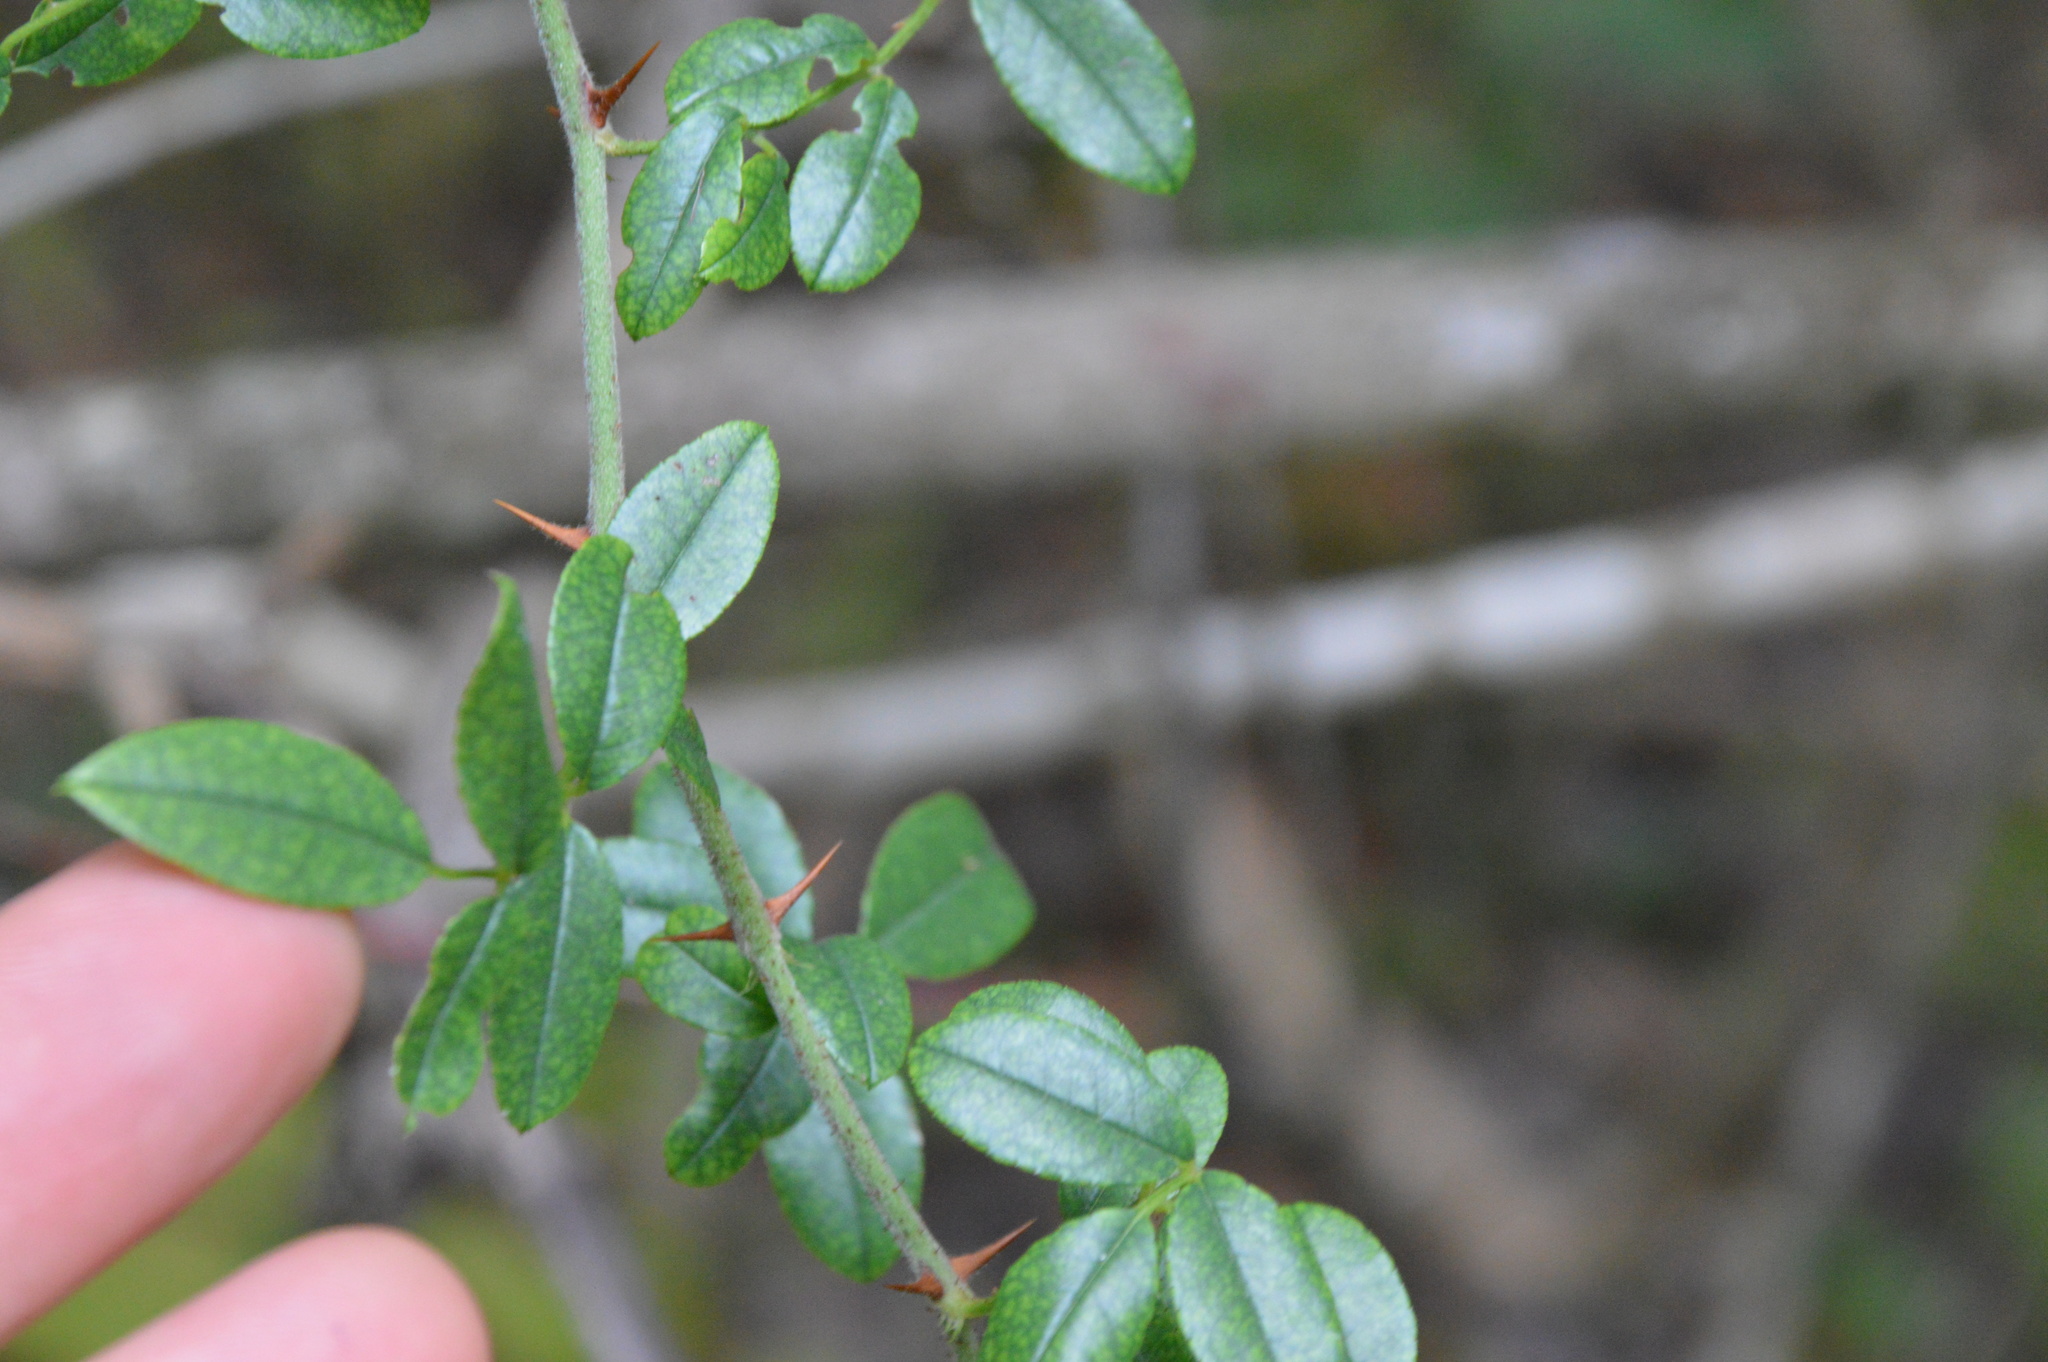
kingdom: Plantae
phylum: Tracheophyta
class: Magnoliopsida
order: Rosales
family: Rosaceae
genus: Rosa
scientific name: Rosa bracteata
